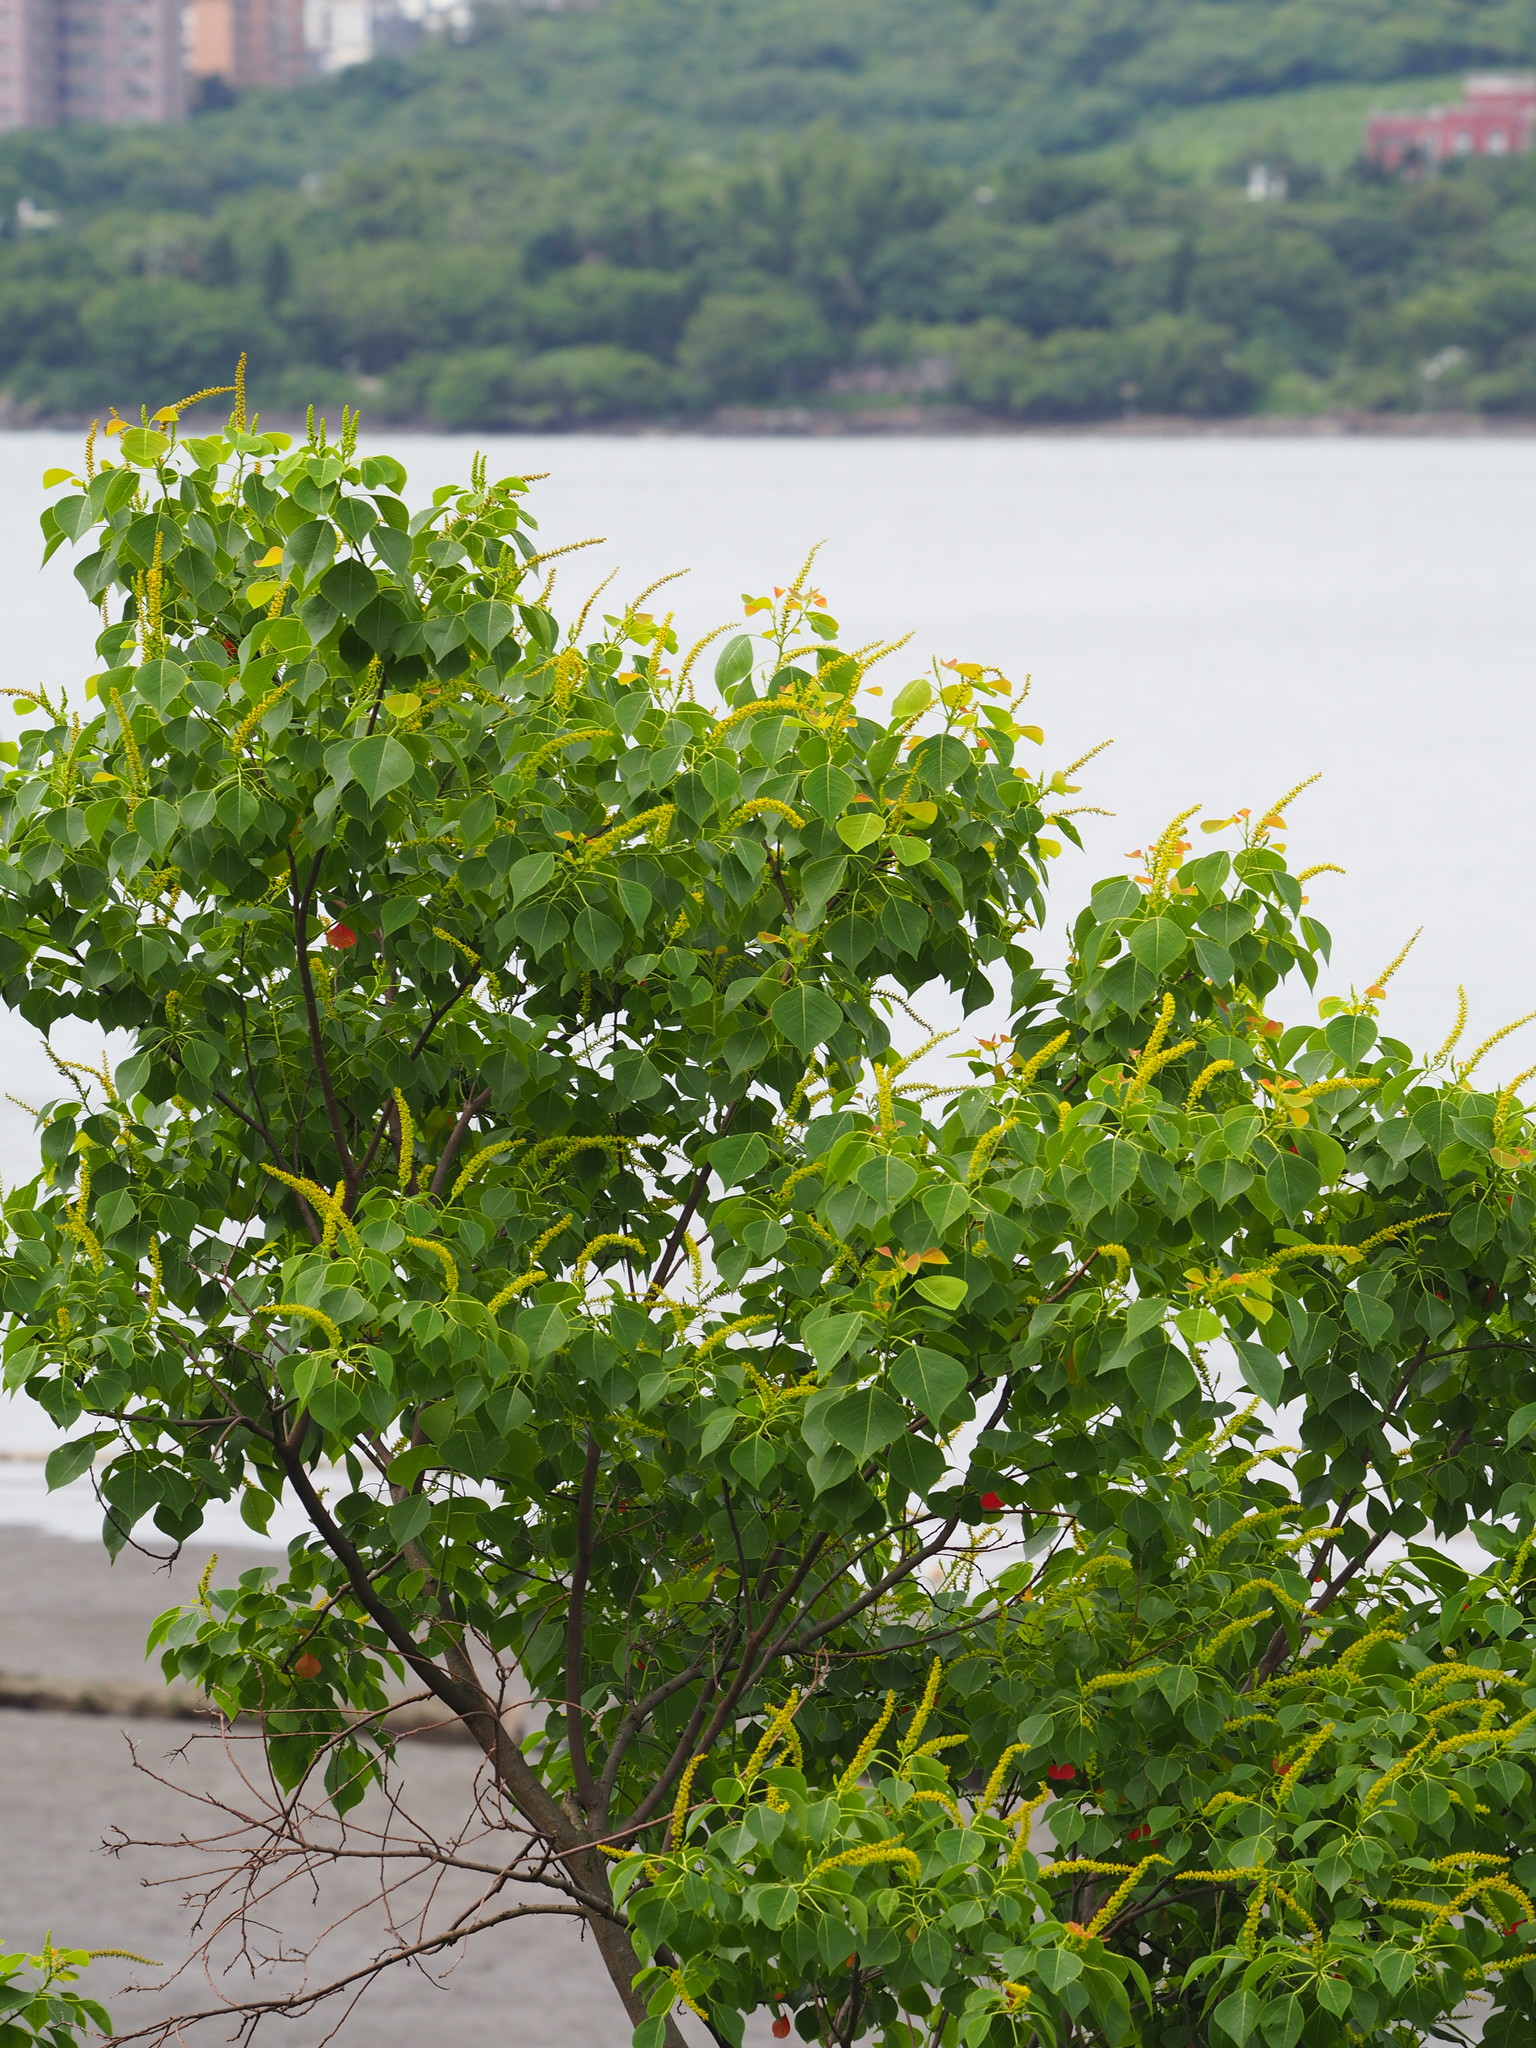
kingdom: Plantae
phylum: Tracheophyta
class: Magnoliopsida
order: Malpighiales
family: Euphorbiaceae
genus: Triadica
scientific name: Triadica sebifera
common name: Chinese tallow
